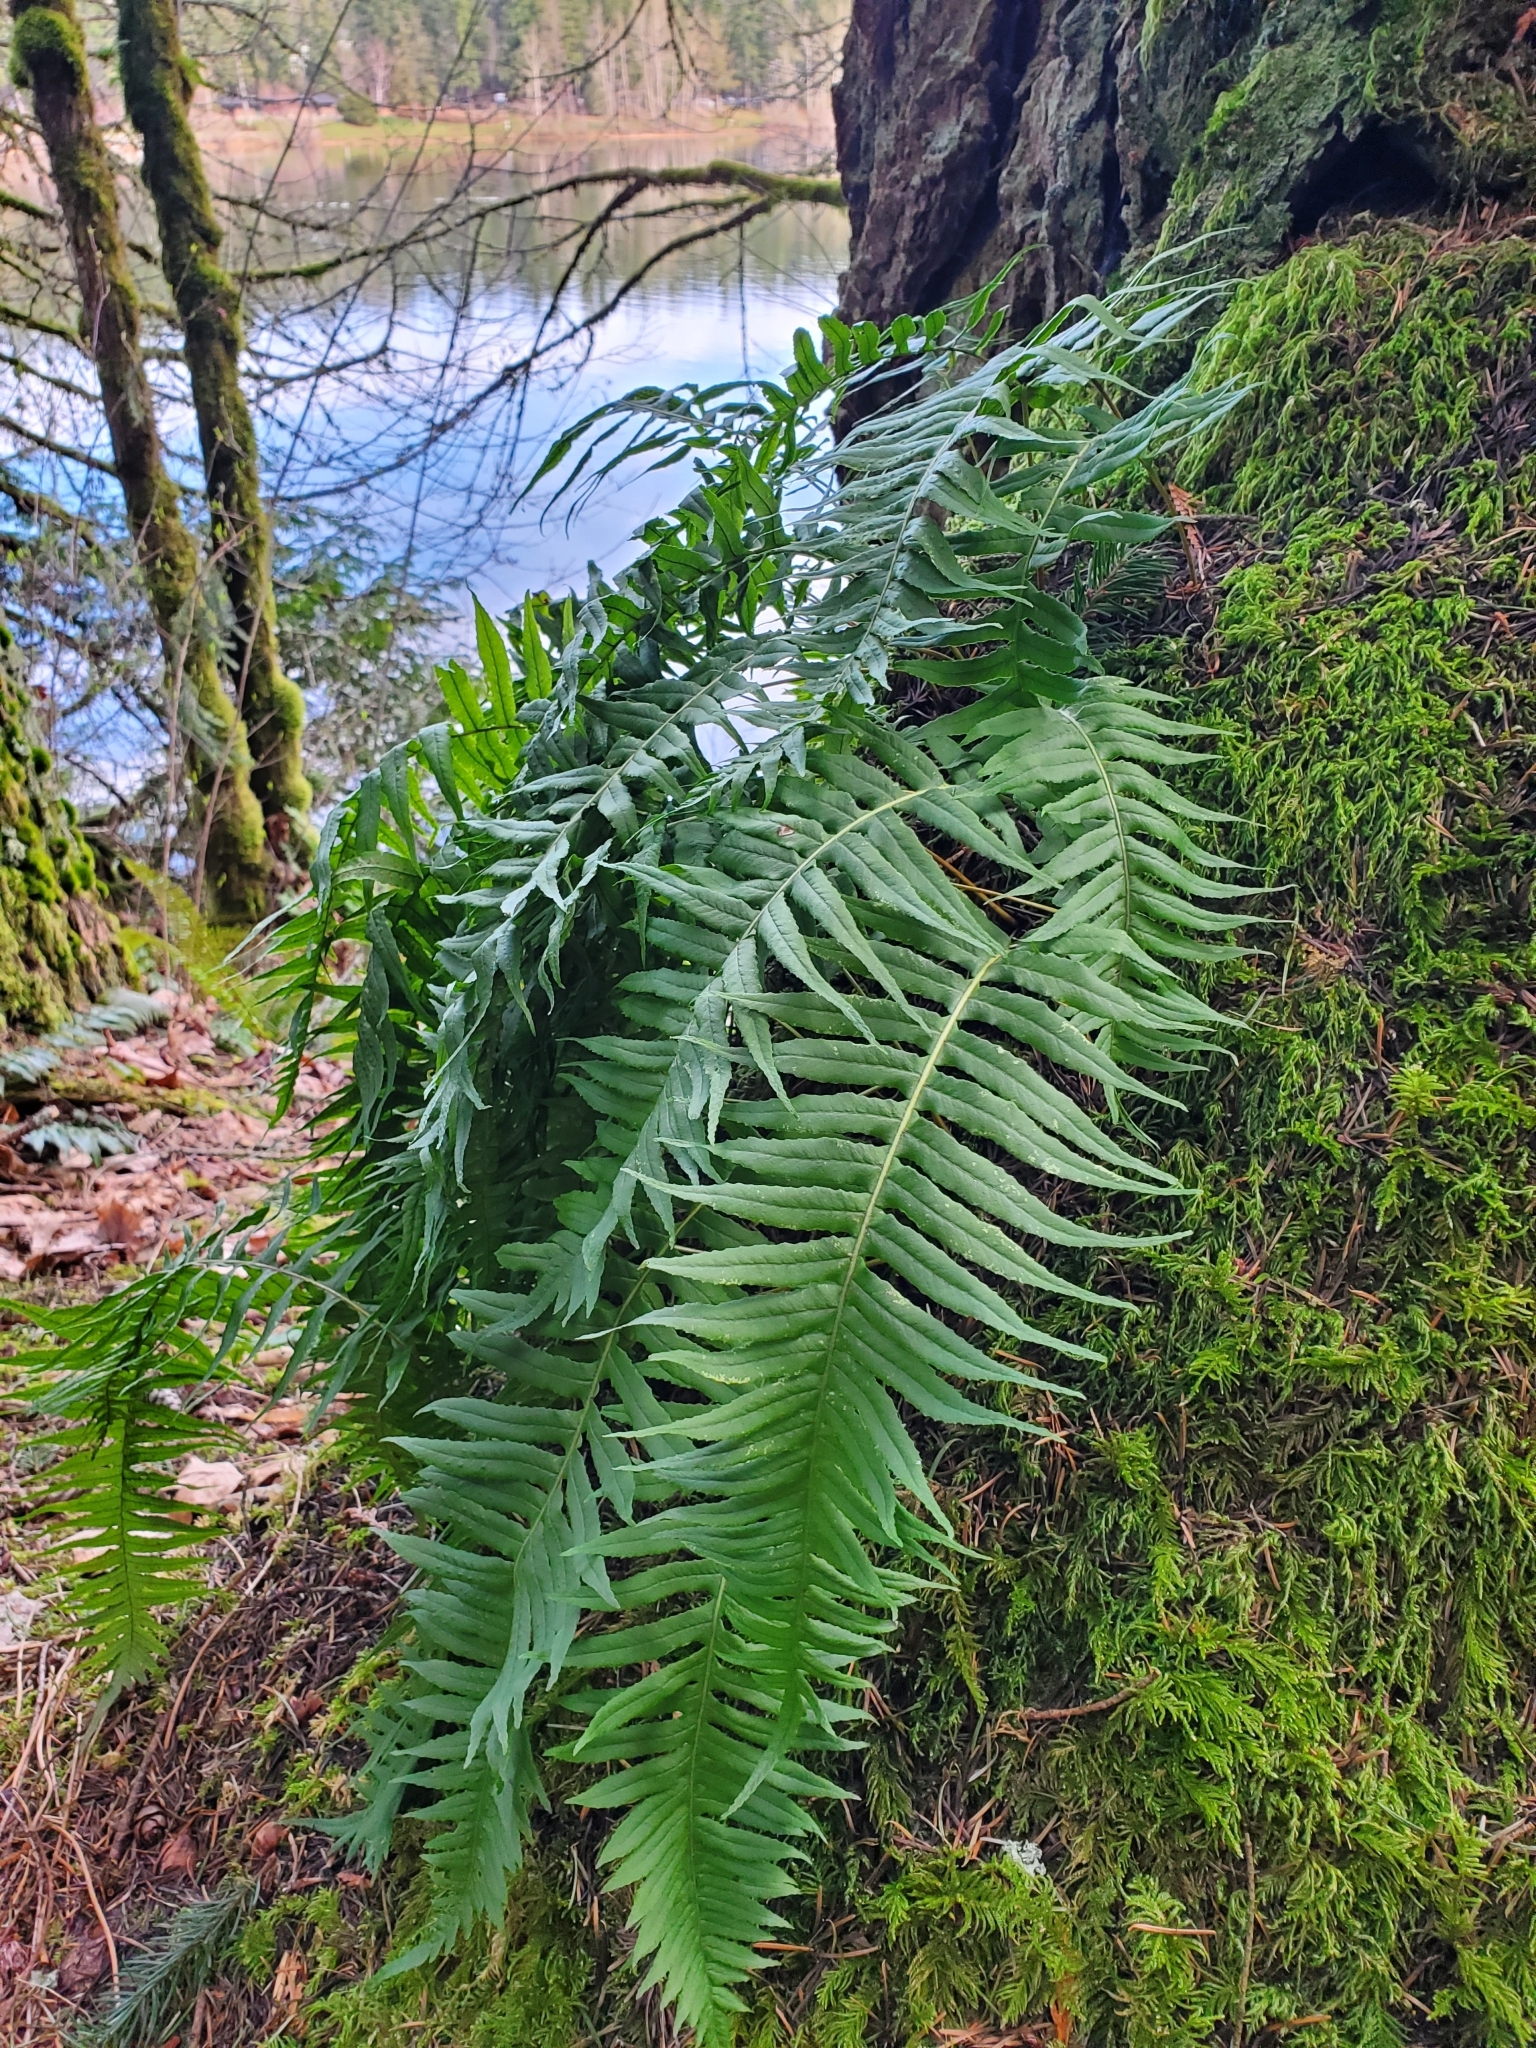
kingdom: Plantae
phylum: Tracheophyta
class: Polypodiopsida
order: Polypodiales
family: Polypodiaceae
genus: Polypodium
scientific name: Polypodium glycyrrhiza
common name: Licorice fern
